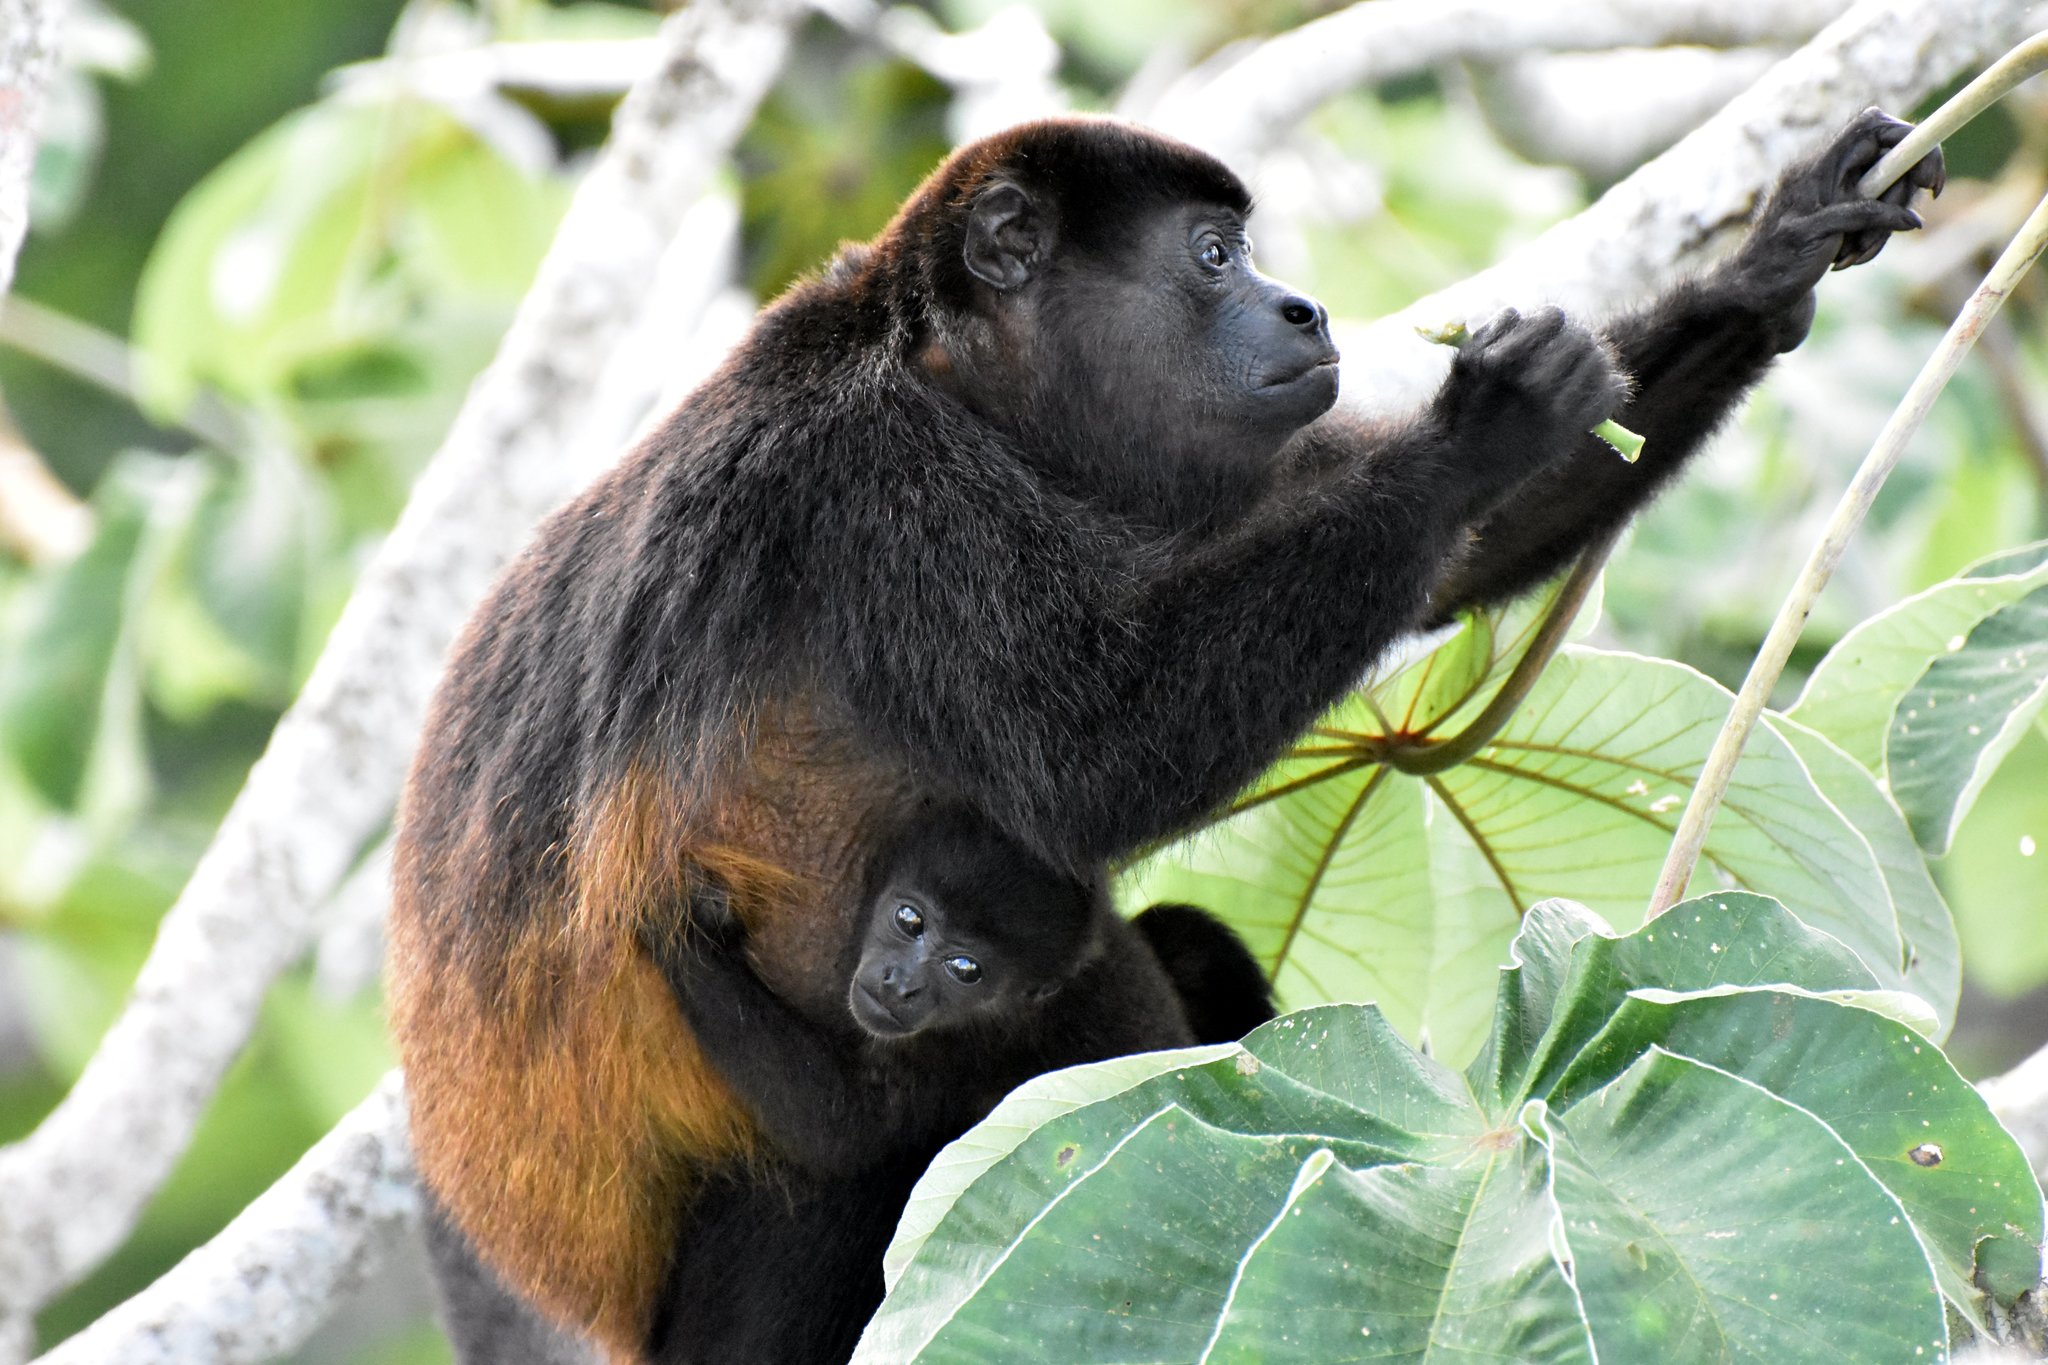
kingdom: Animalia
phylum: Chordata
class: Mammalia
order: Primates
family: Atelidae
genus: Alouatta
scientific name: Alouatta palliata
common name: Mantled howler
